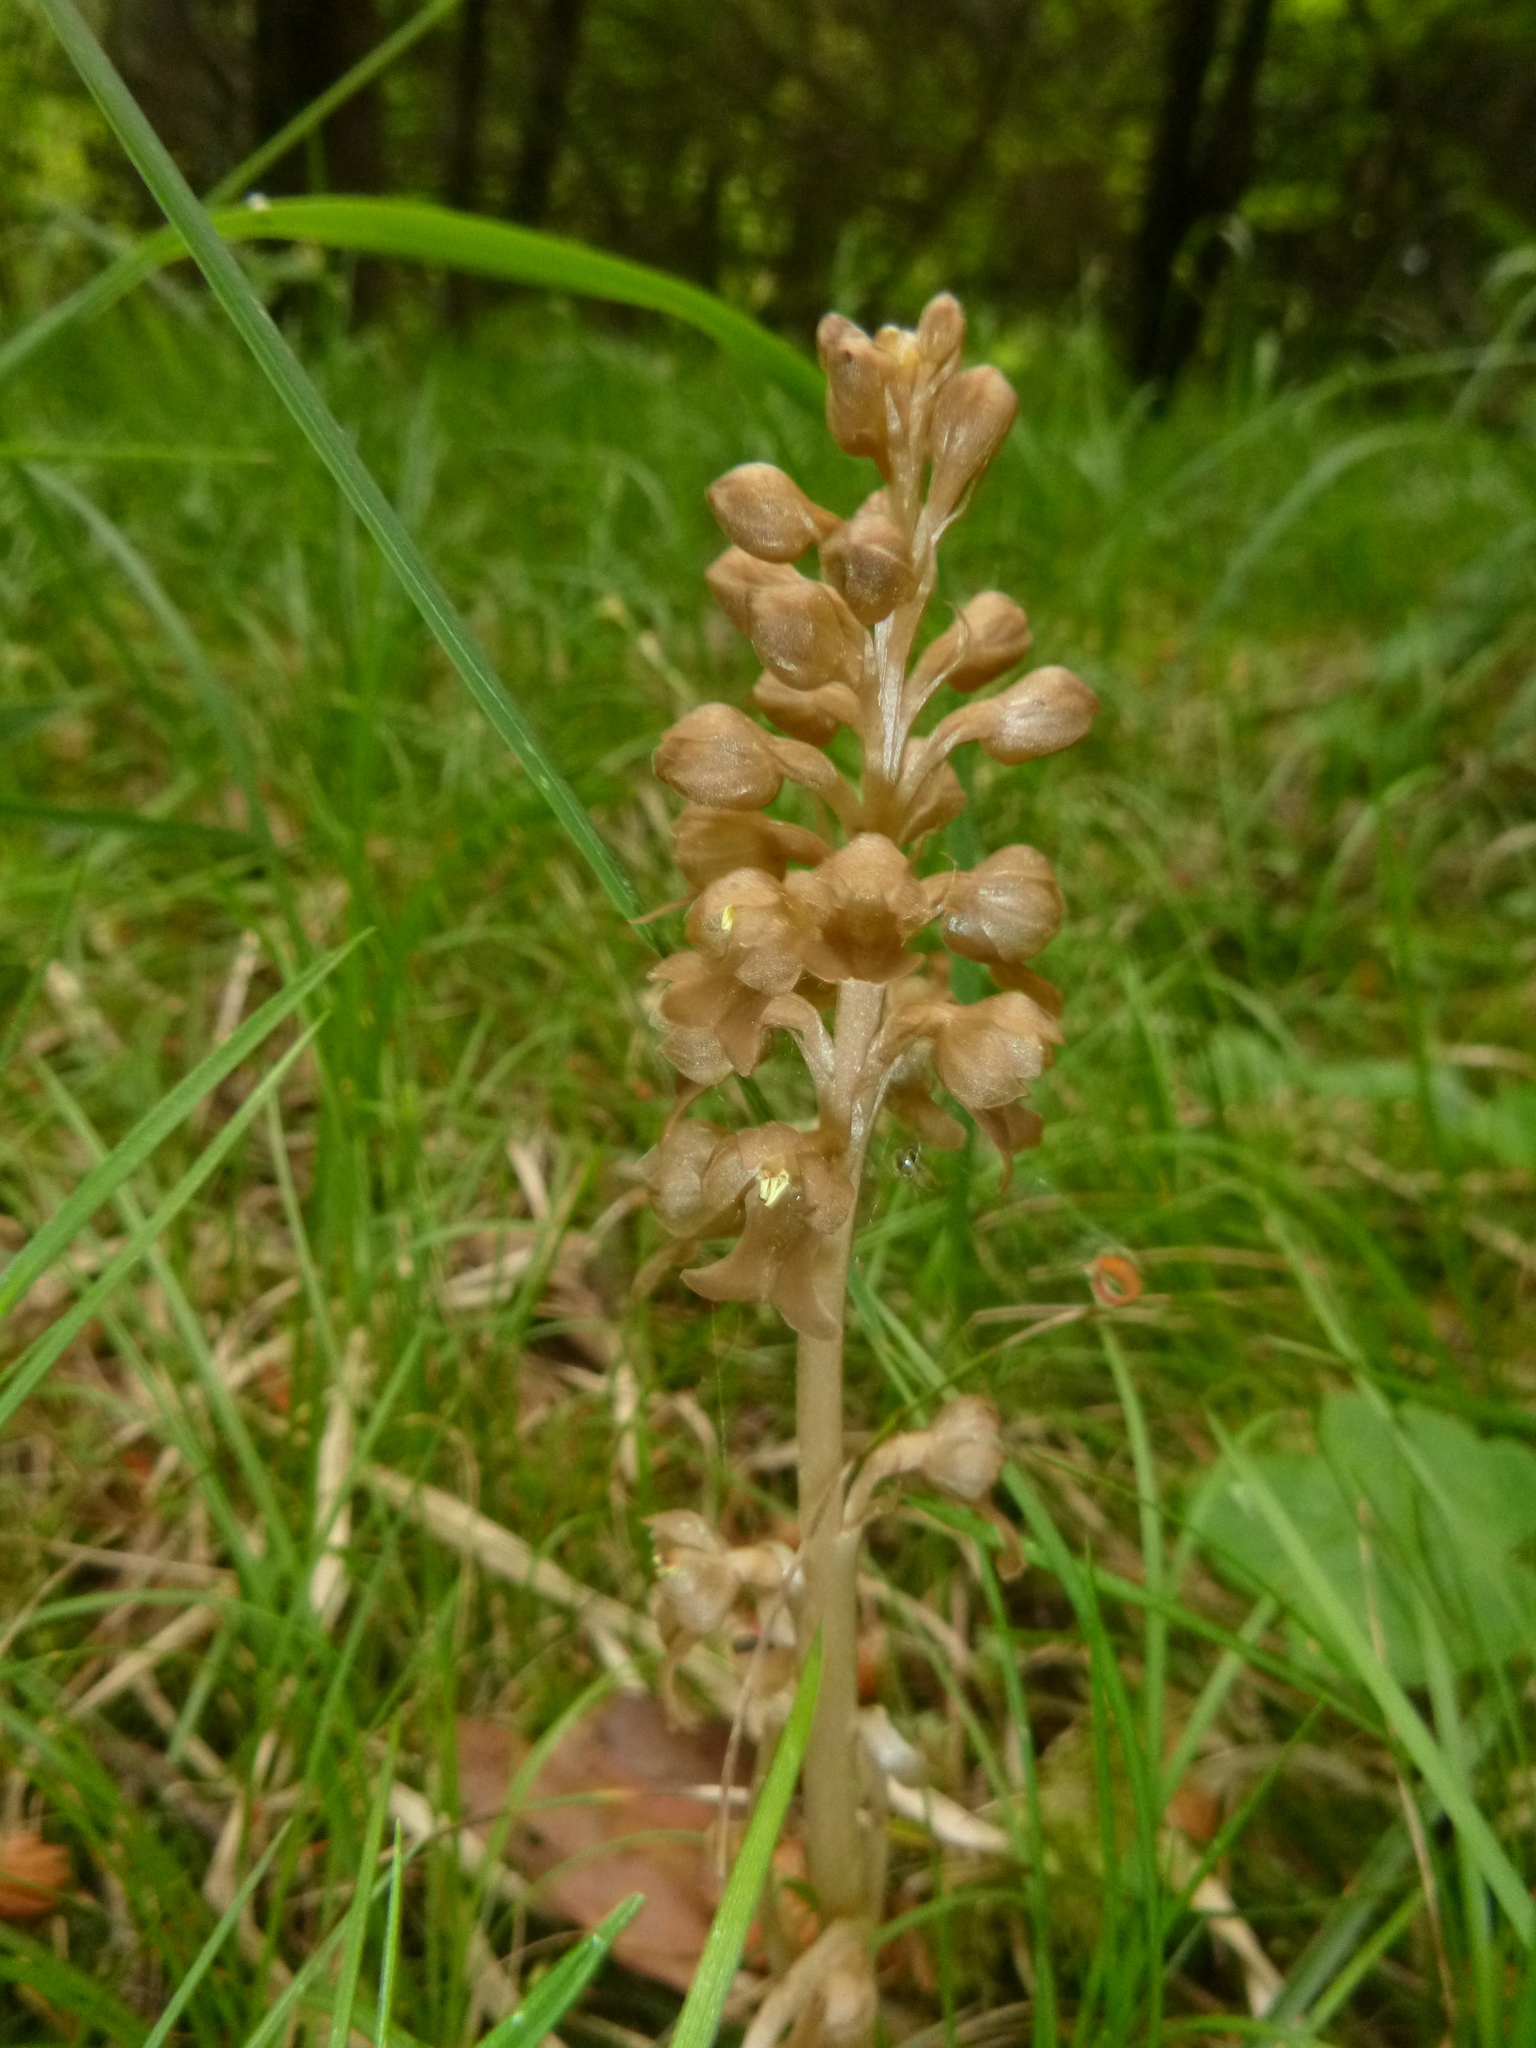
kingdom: Plantae
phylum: Tracheophyta
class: Liliopsida
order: Asparagales
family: Orchidaceae
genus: Neottia
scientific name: Neottia nidus-avis
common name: Bird's-nest orchid
